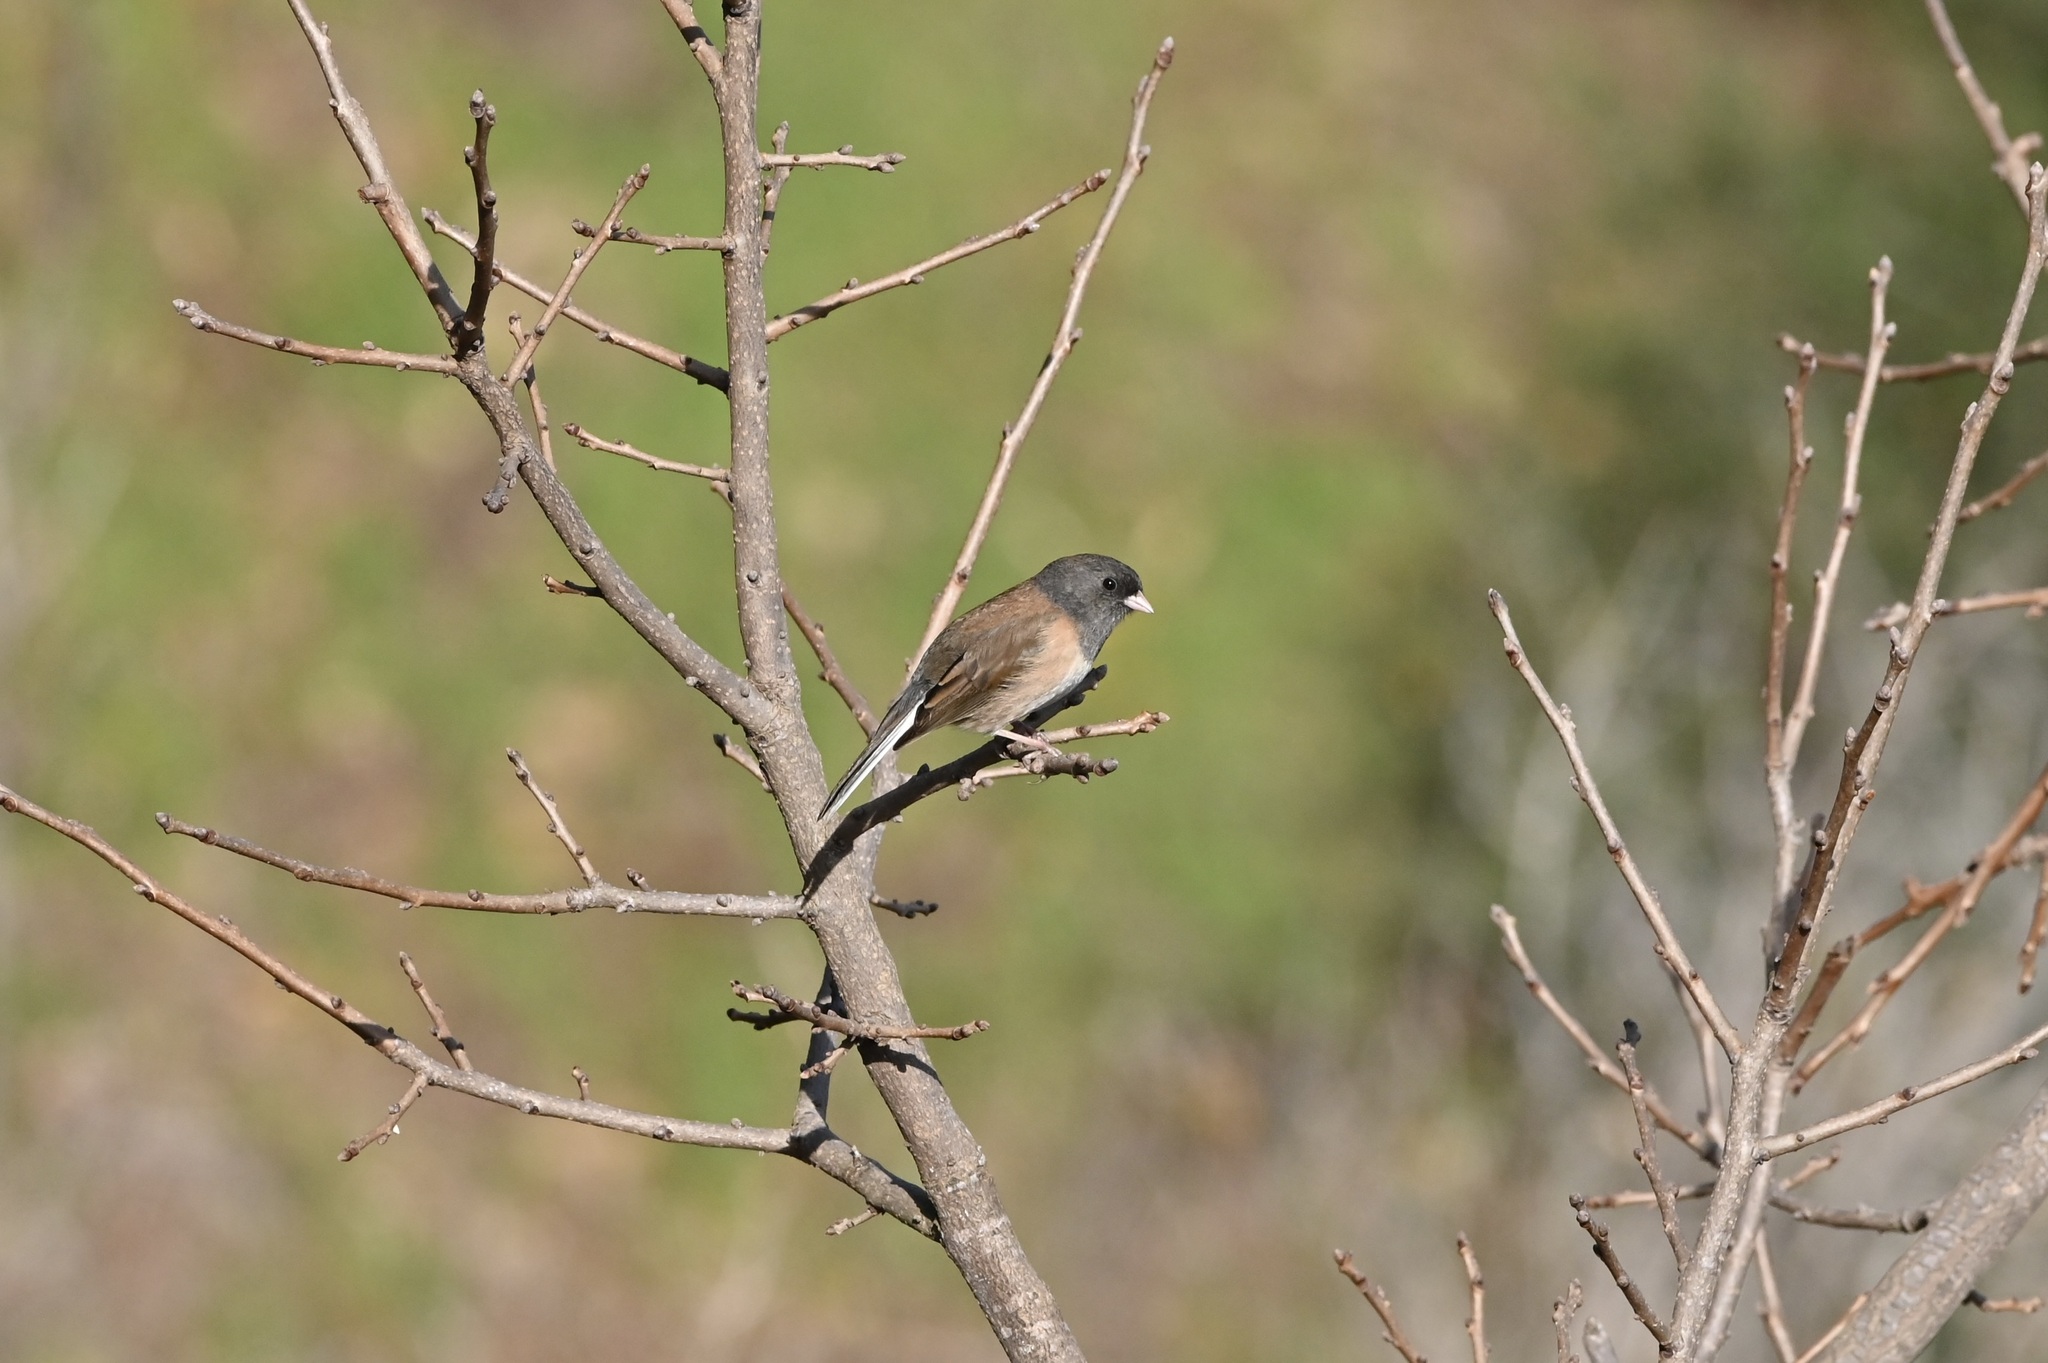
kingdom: Animalia
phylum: Chordata
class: Aves
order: Passeriformes
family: Passerellidae
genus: Junco
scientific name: Junco hyemalis
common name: Dark-eyed junco
